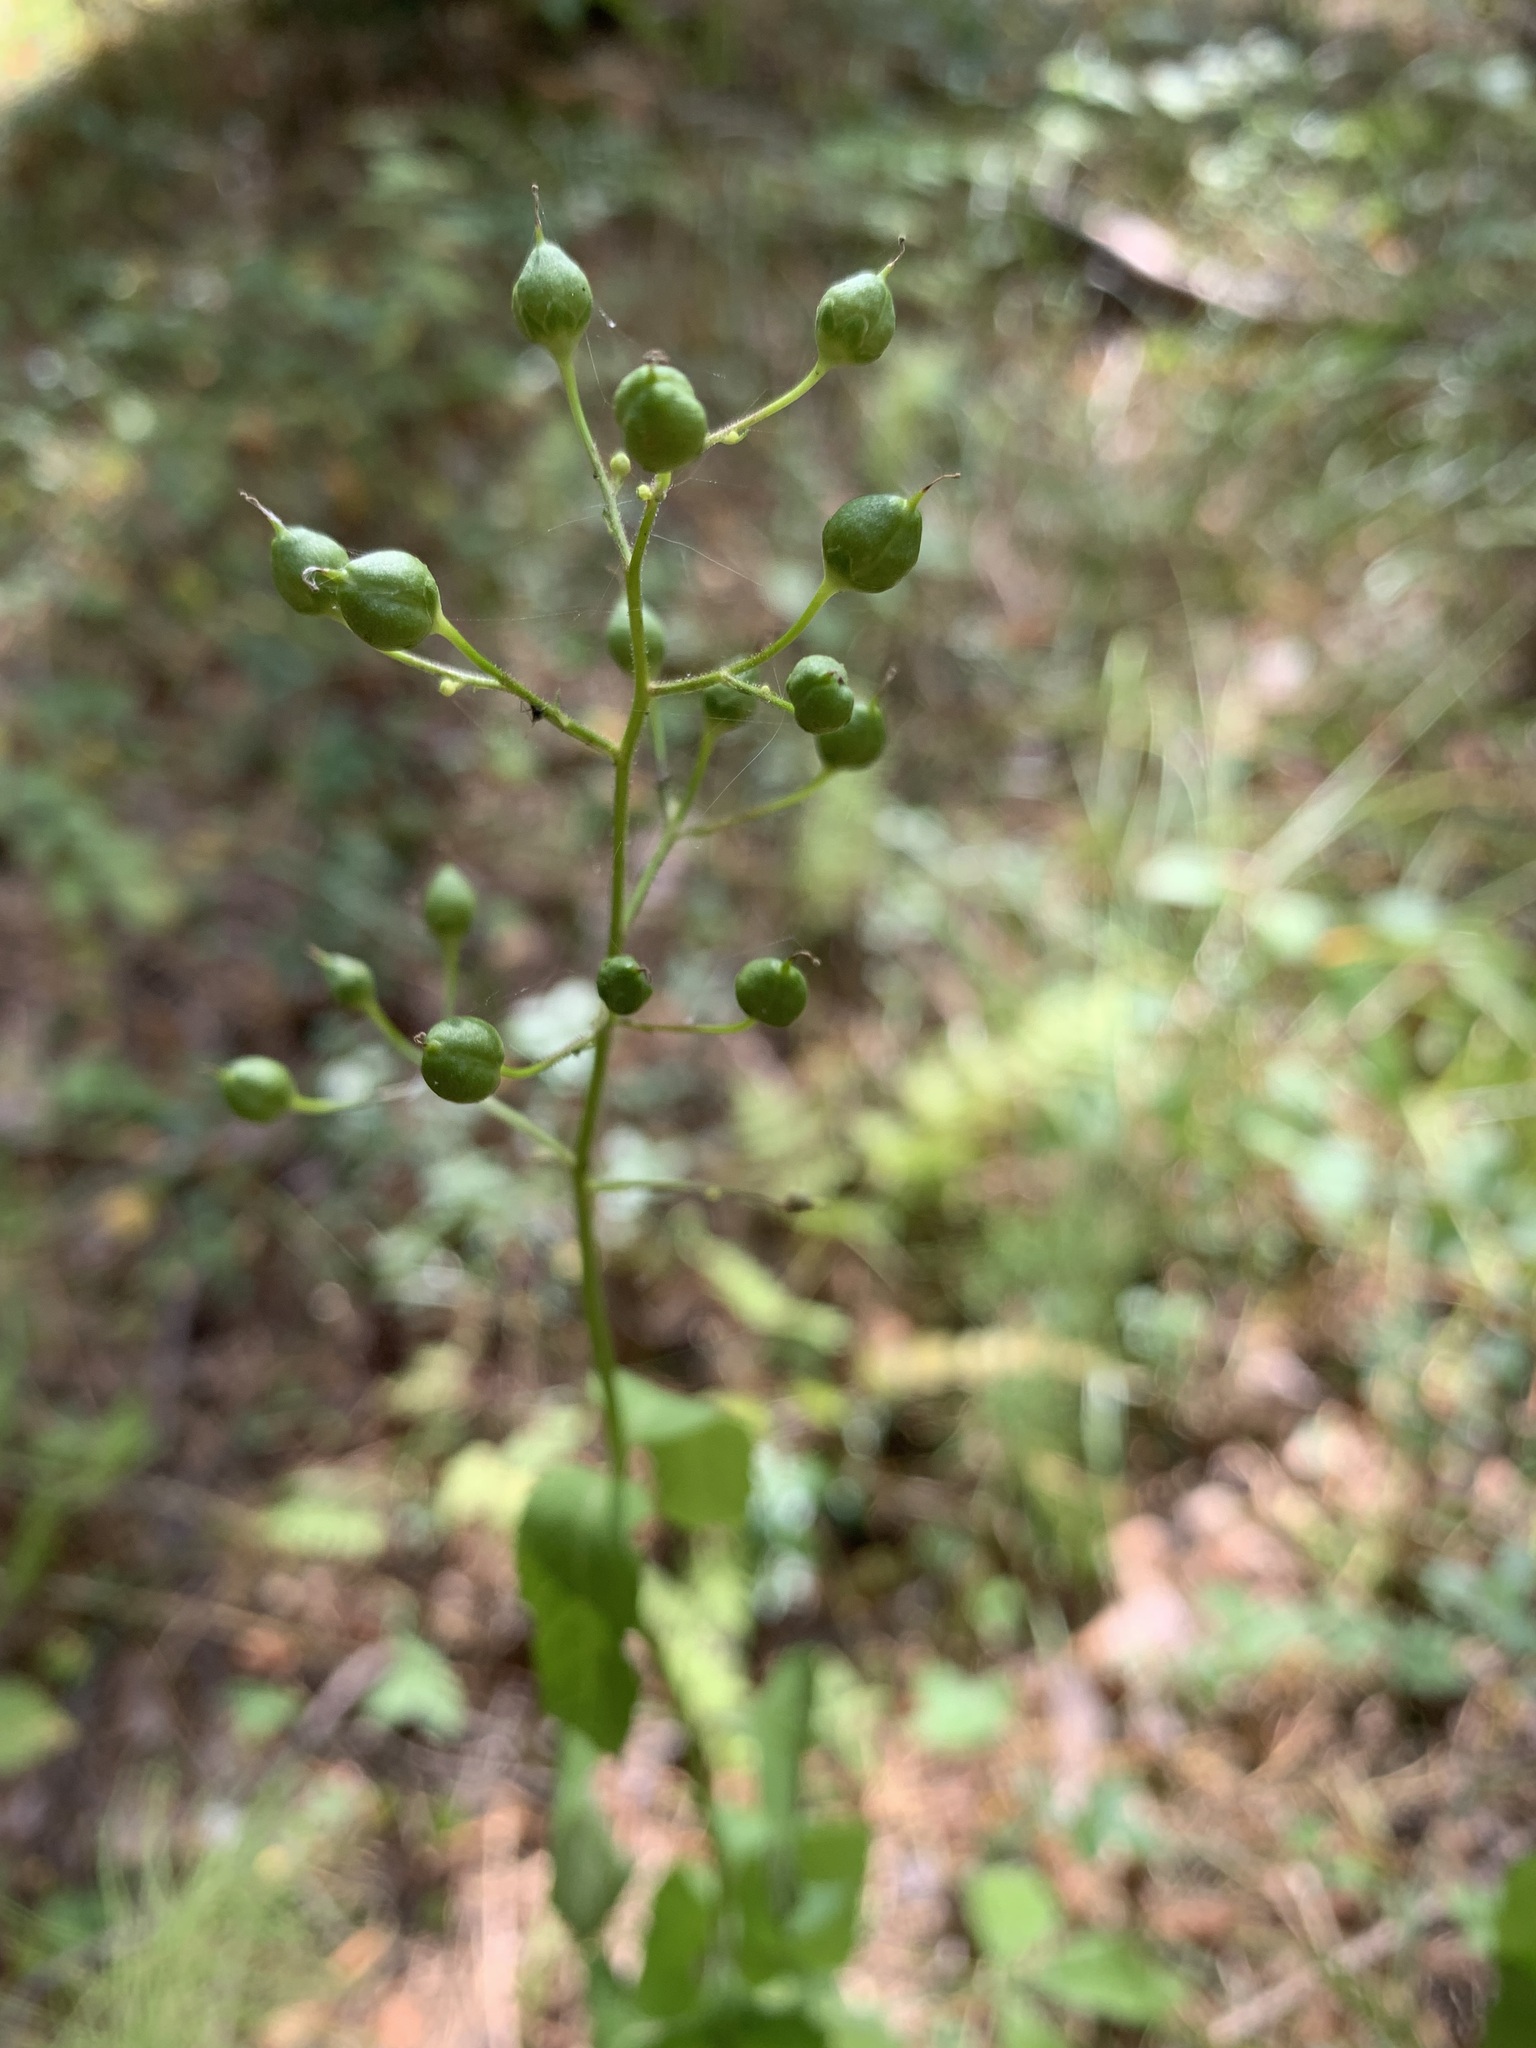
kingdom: Plantae
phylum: Tracheophyta
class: Magnoliopsida
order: Lamiales
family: Scrophulariaceae
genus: Scrophularia
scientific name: Scrophularia nodosa
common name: Common figwort
